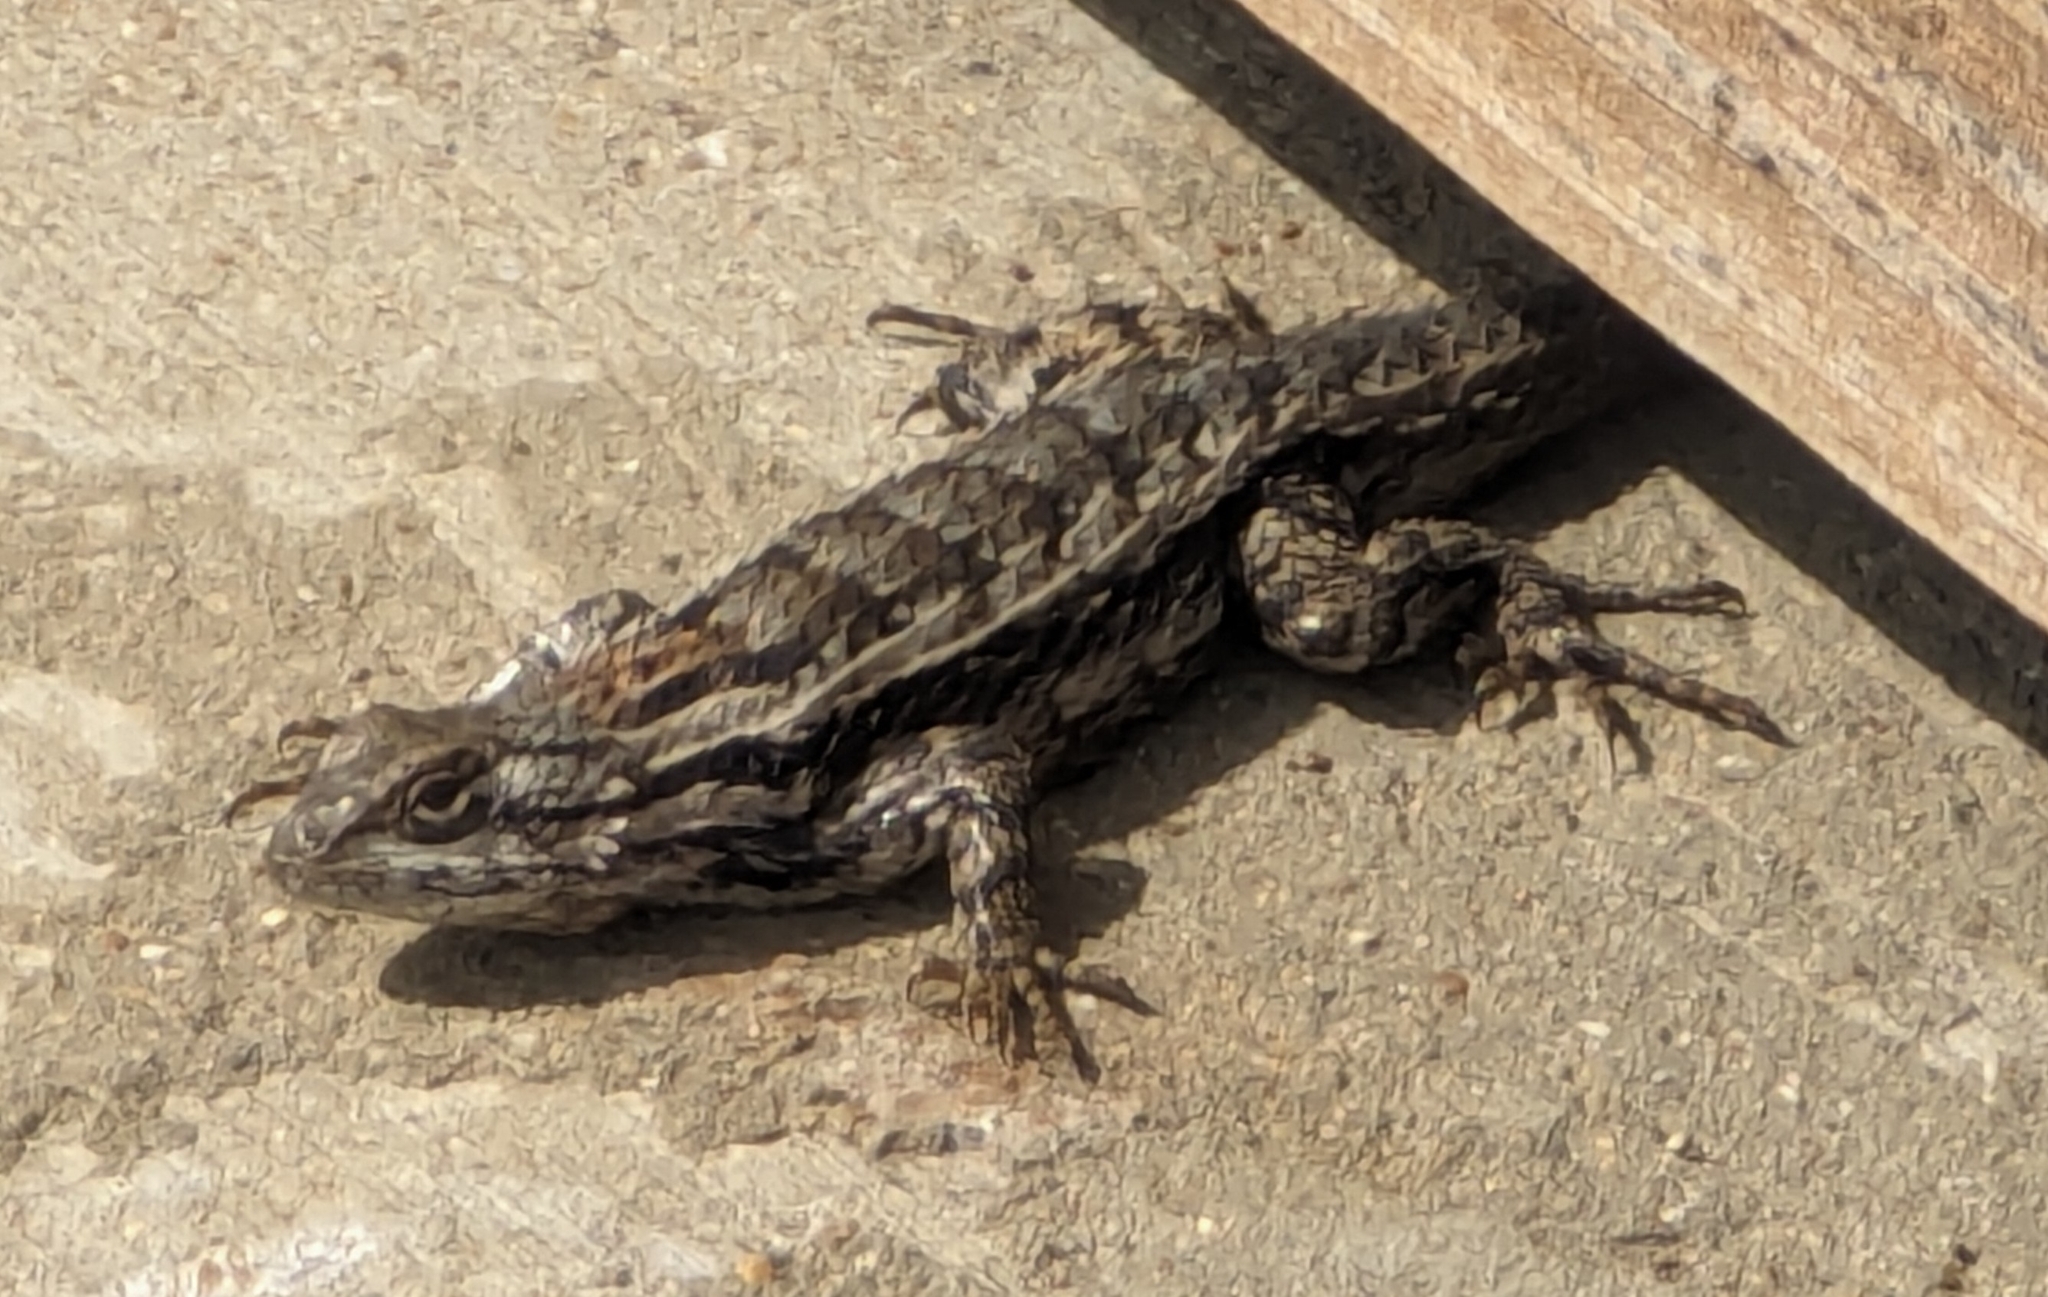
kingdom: Animalia
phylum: Chordata
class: Squamata
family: Phrynosomatidae
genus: Sceloporus
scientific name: Sceloporus olivaceus
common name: Texas spiny lizard
